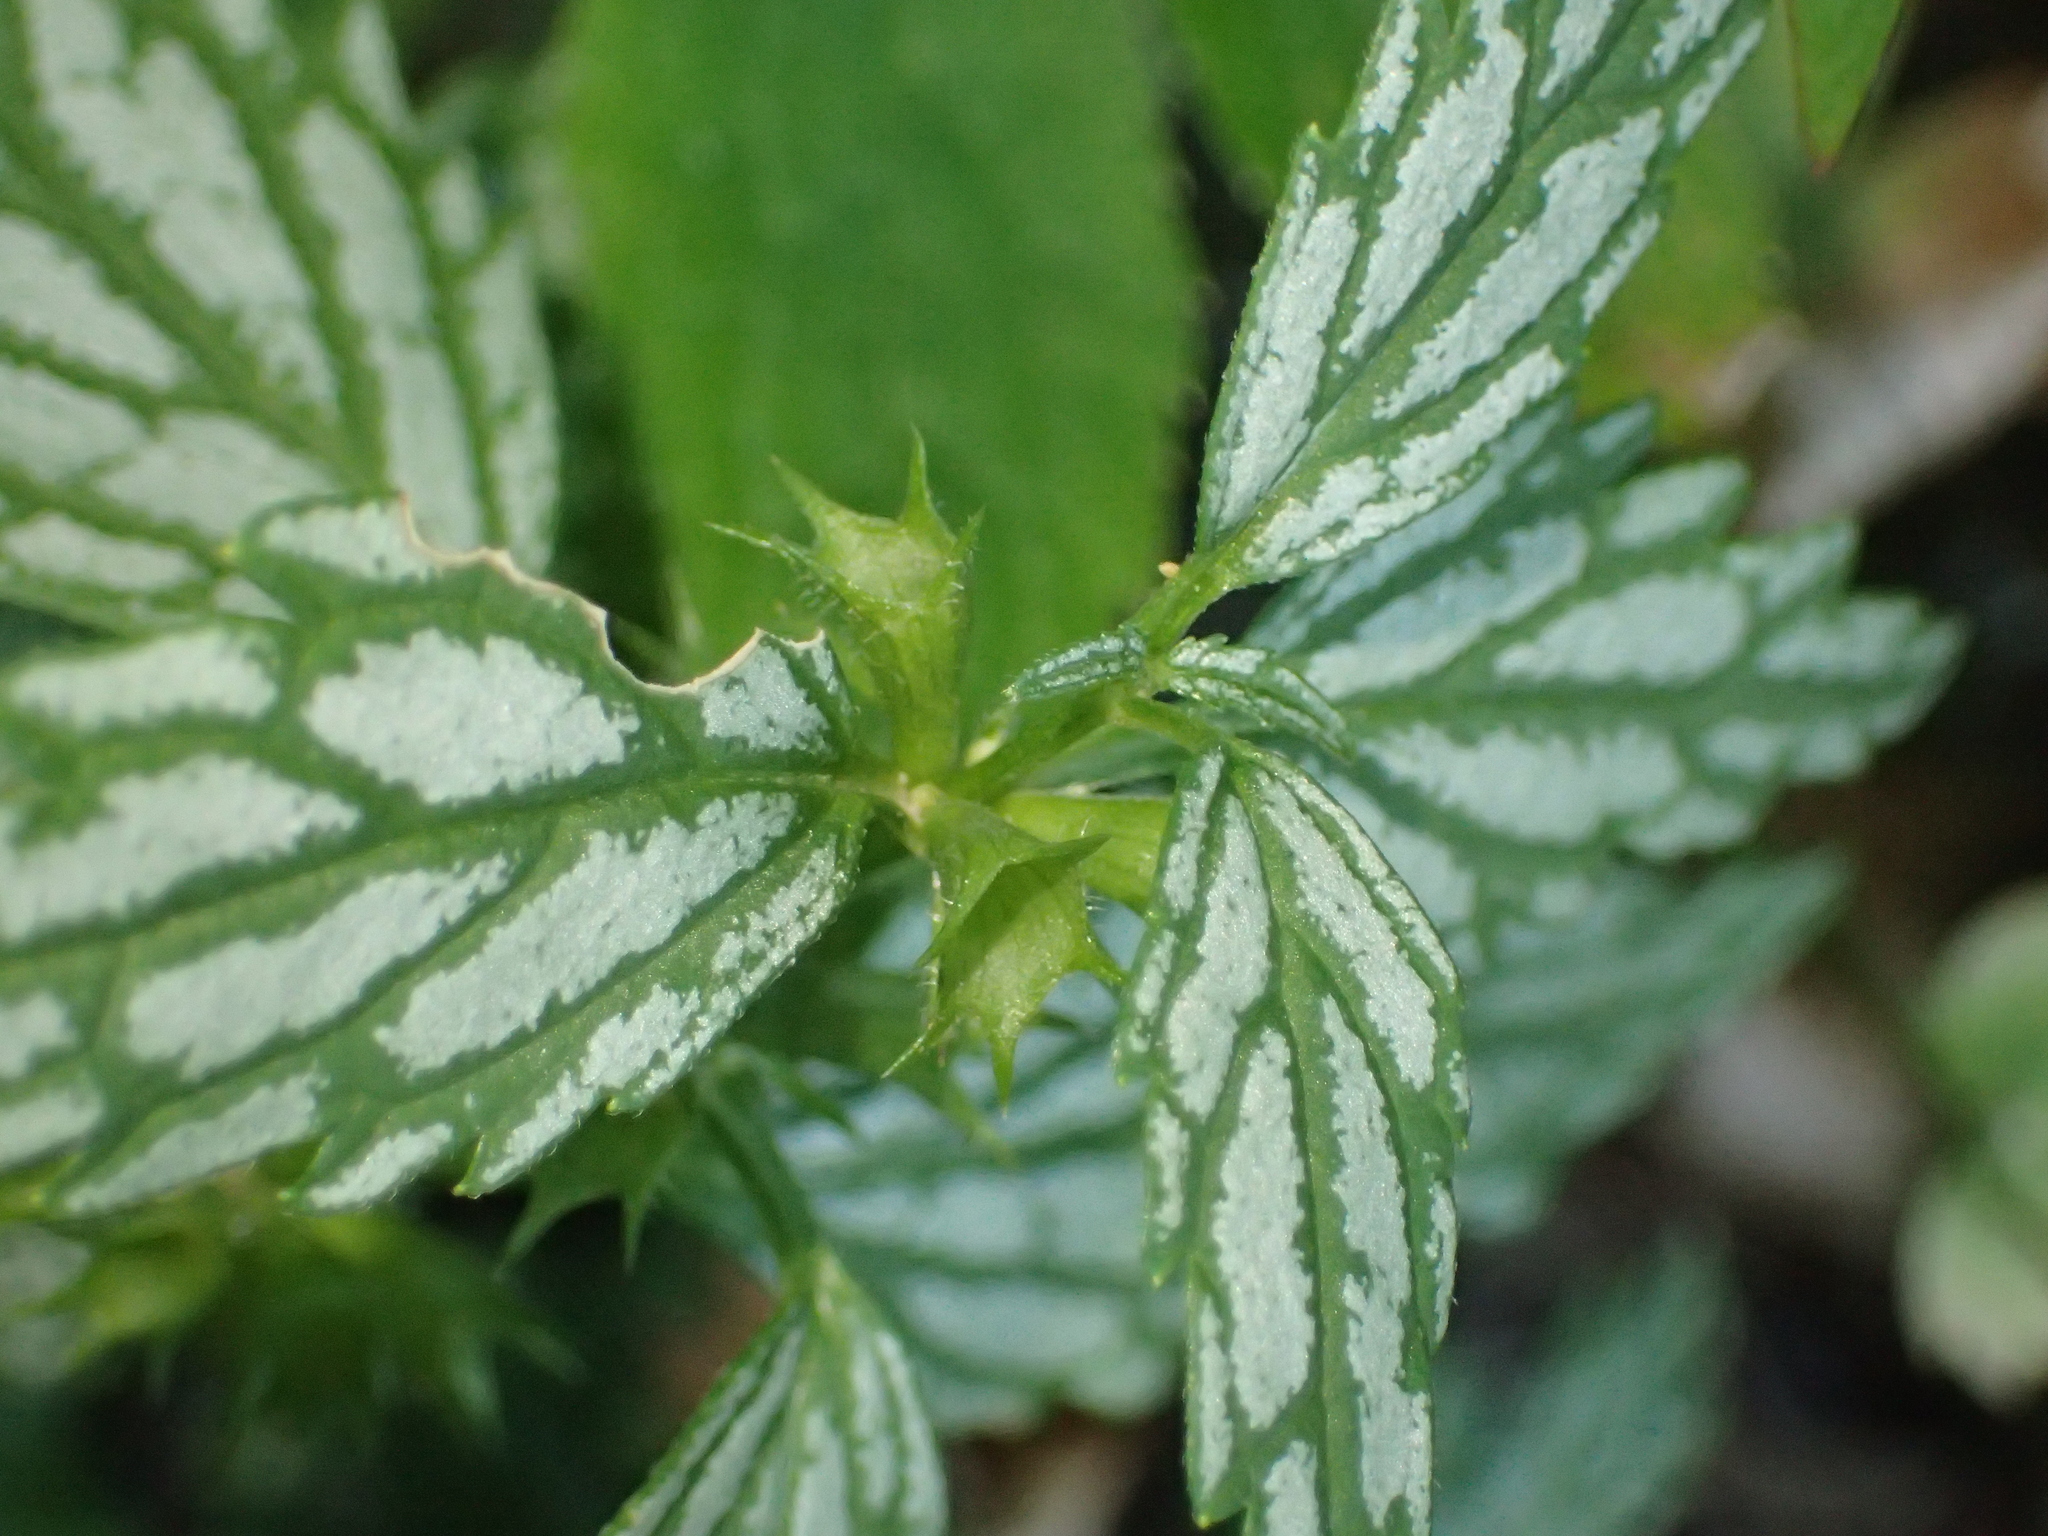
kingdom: Plantae
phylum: Tracheophyta
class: Magnoliopsida
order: Lamiales
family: Lamiaceae
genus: Lamium
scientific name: Lamium galeobdolon
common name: Yellow archangel
